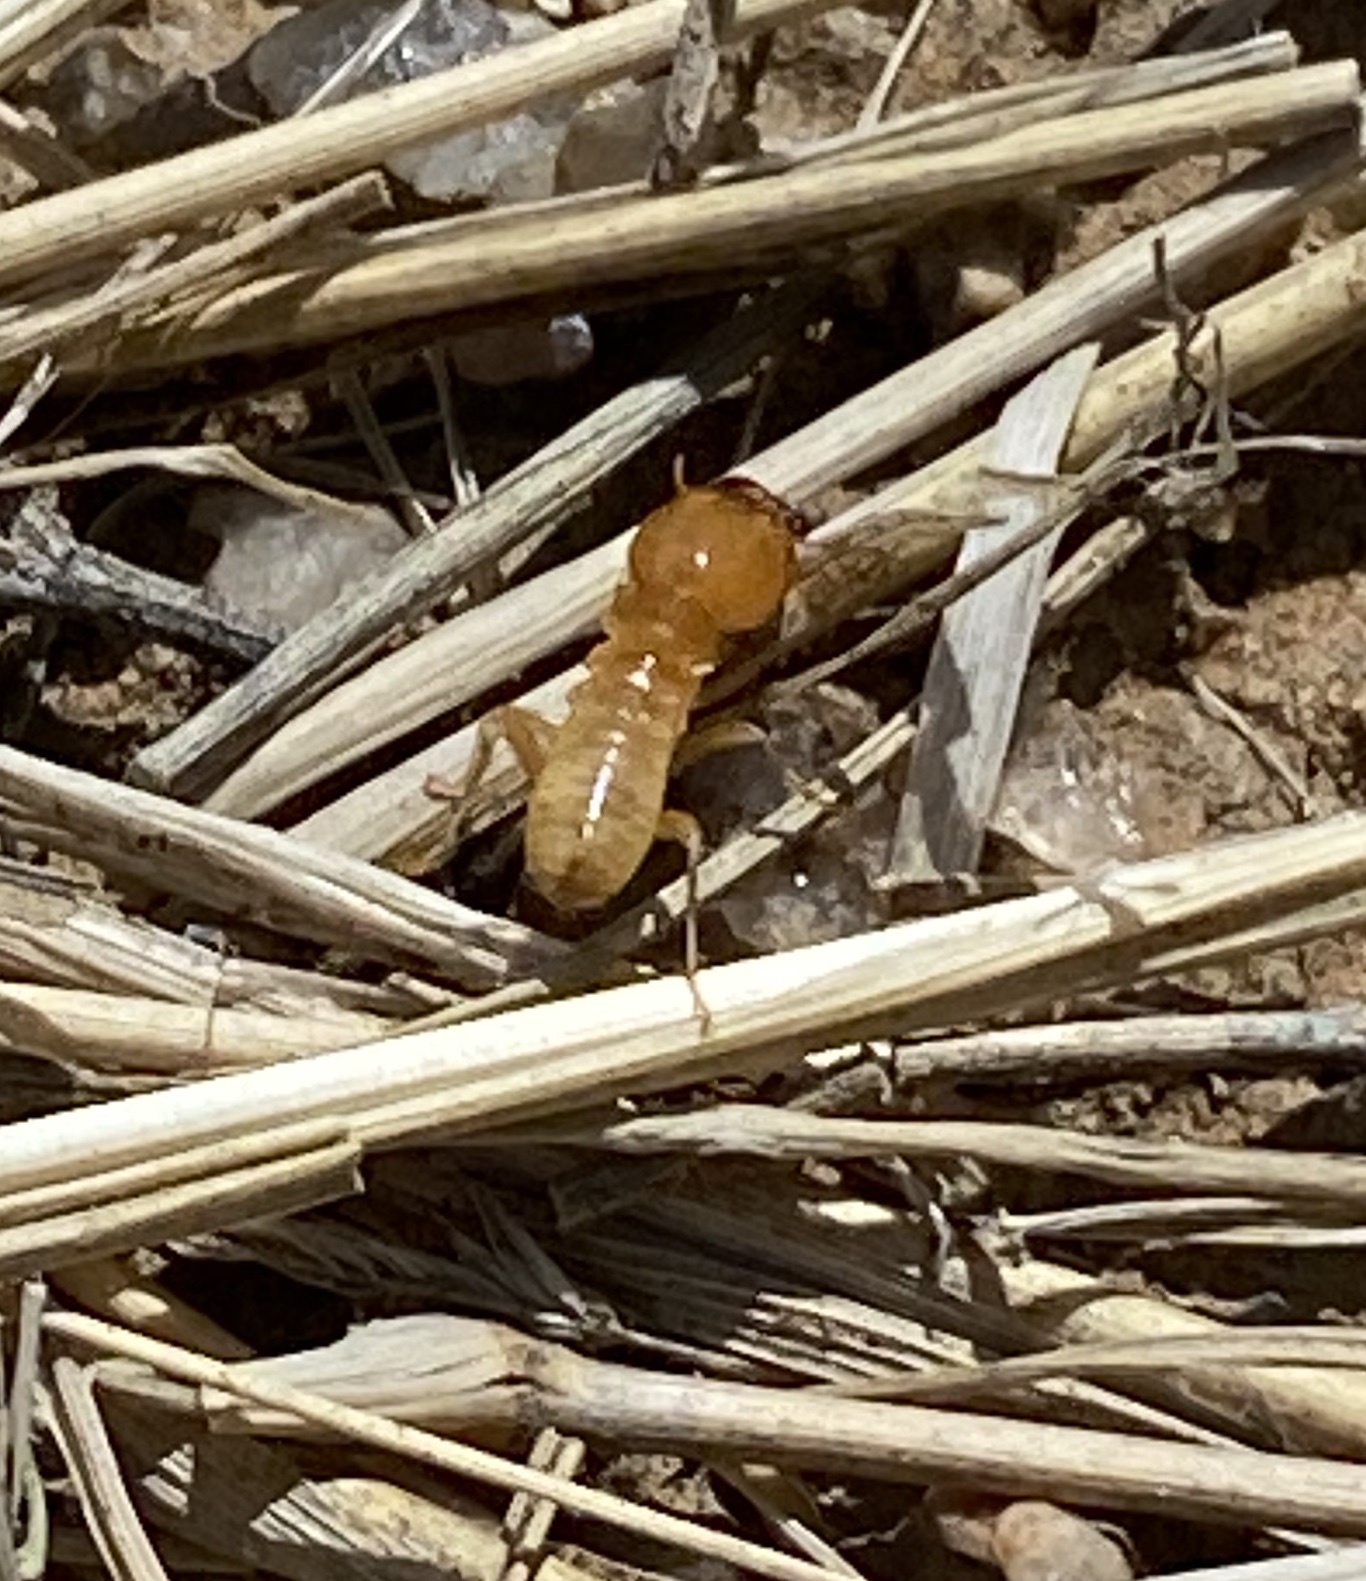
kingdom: Animalia
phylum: Arthropoda
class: Insecta
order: Blattodea
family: Hodotermitidae
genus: Hodotermes
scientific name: Hodotermes mossambicus
